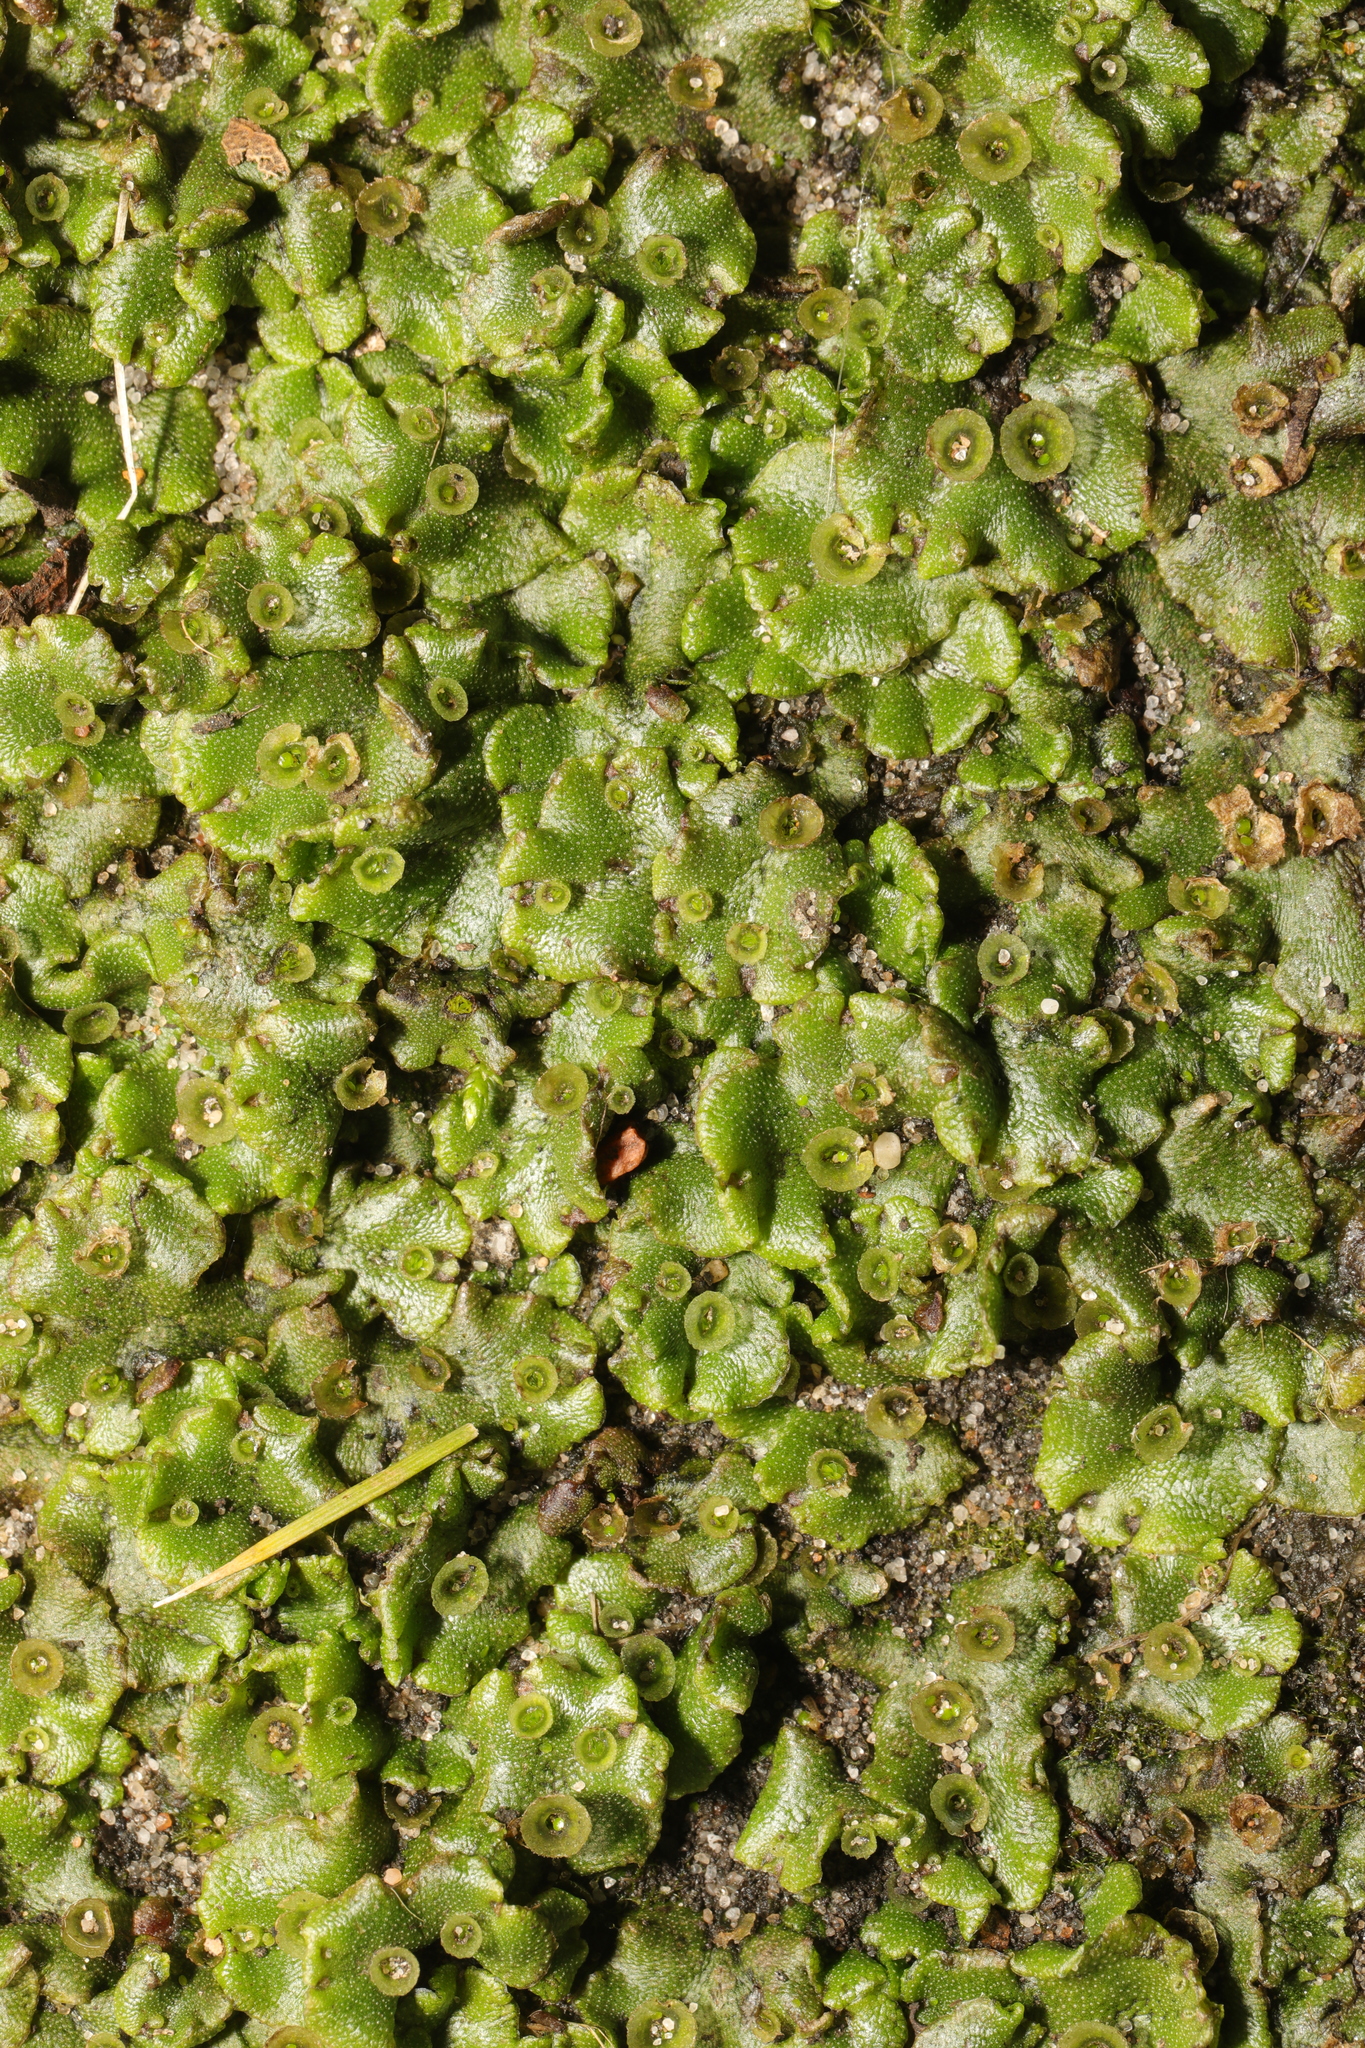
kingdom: Plantae
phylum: Marchantiophyta
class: Marchantiopsida
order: Marchantiales
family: Marchantiaceae
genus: Marchantia
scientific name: Marchantia polymorpha
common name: Common liverwort
